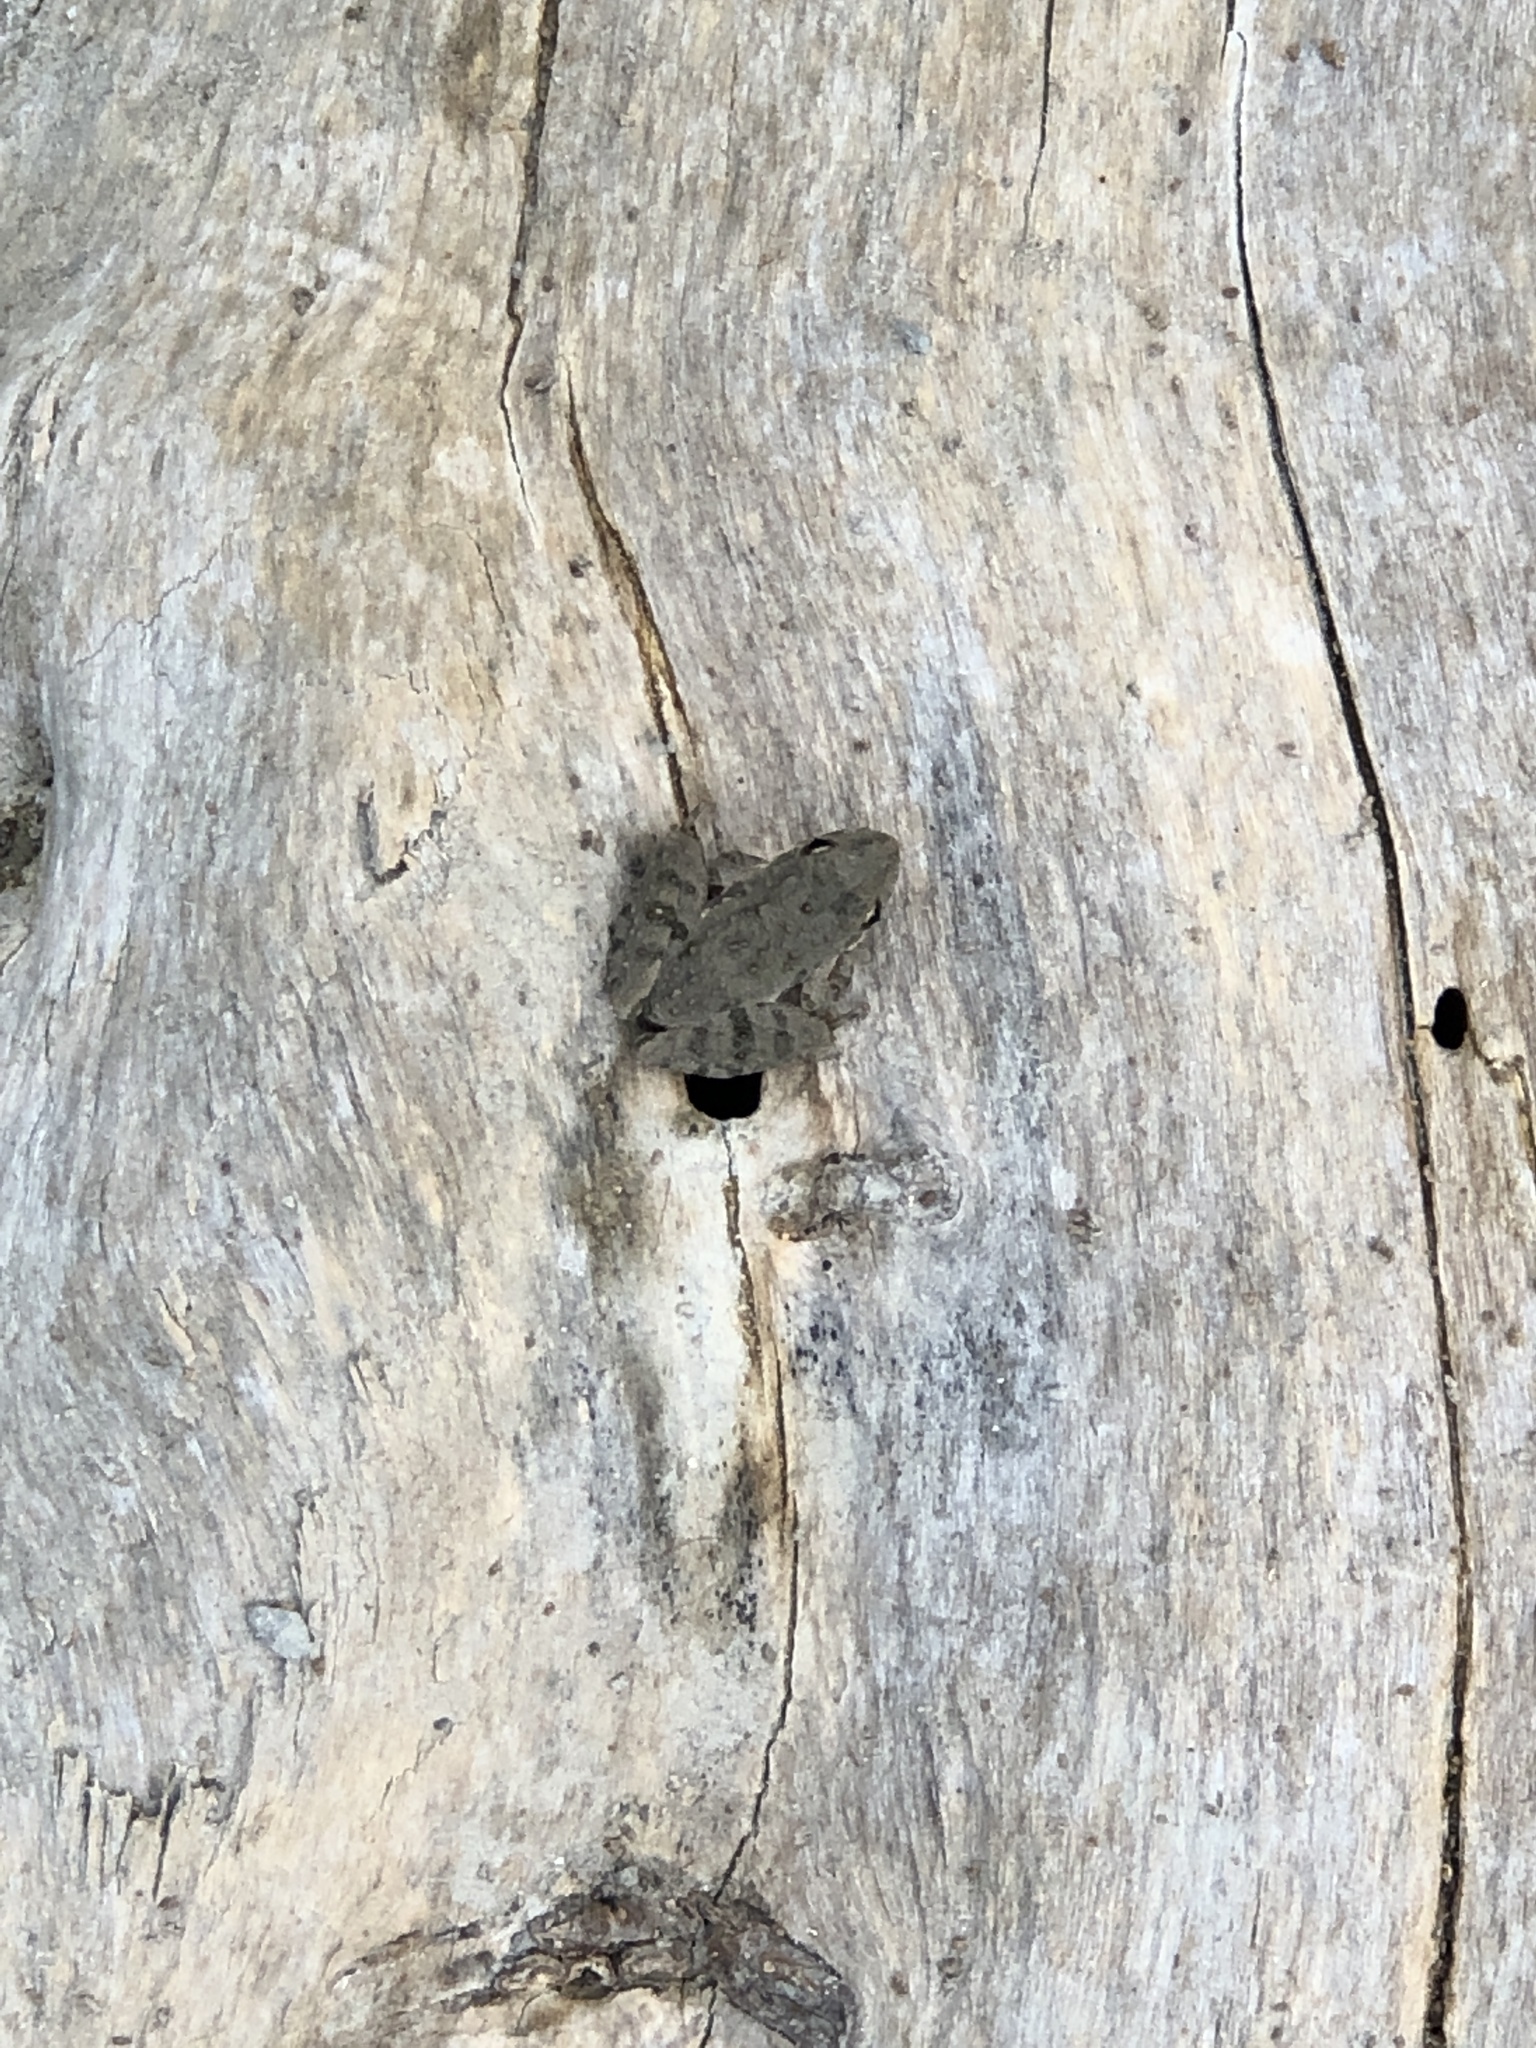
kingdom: Animalia
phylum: Chordata
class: Amphibia
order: Anura
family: Hylidae
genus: Acris
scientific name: Acris blanchardi
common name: Blanchard's cricket frog
